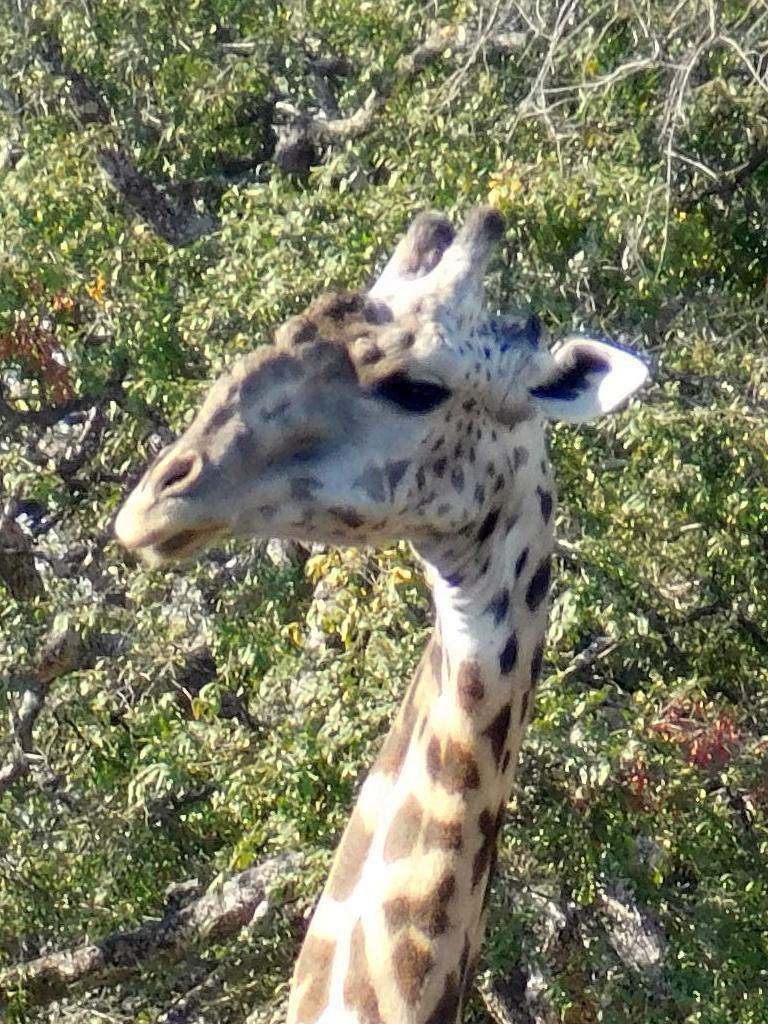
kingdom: Animalia
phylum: Chordata
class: Mammalia
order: Artiodactyla
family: Giraffidae
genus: Giraffa
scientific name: Giraffa tippelskirchi
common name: Masai giraffe
